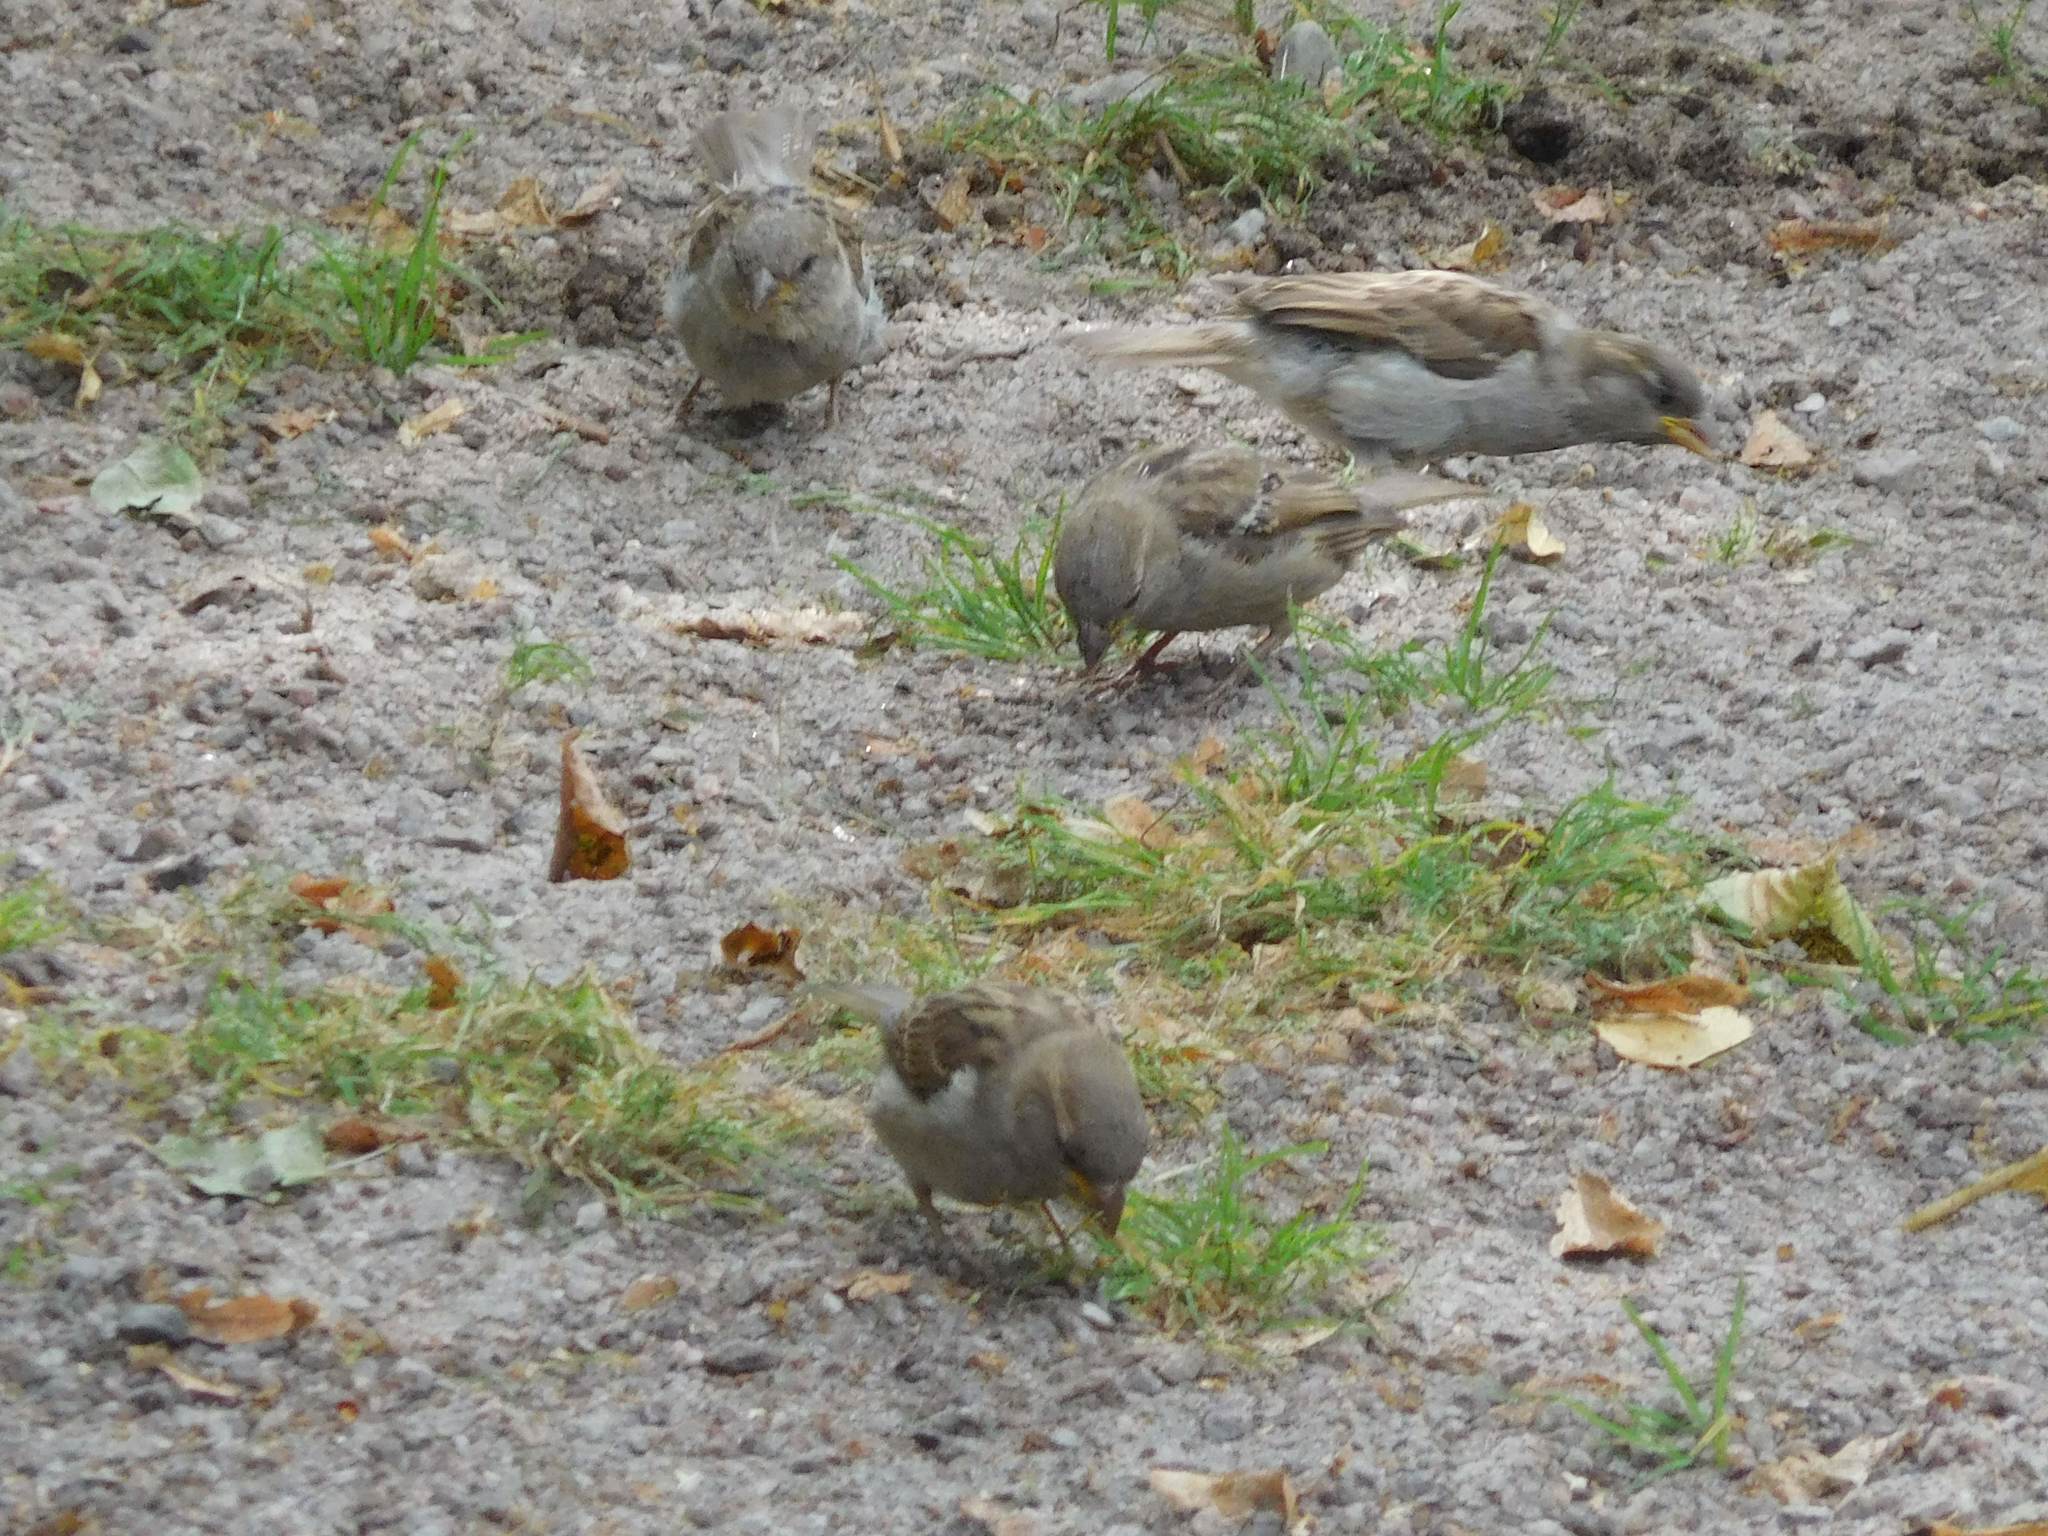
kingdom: Animalia
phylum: Chordata
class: Aves
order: Passeriformes
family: Passeridae
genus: Passer
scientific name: Passer domesticus
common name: House sparrow
